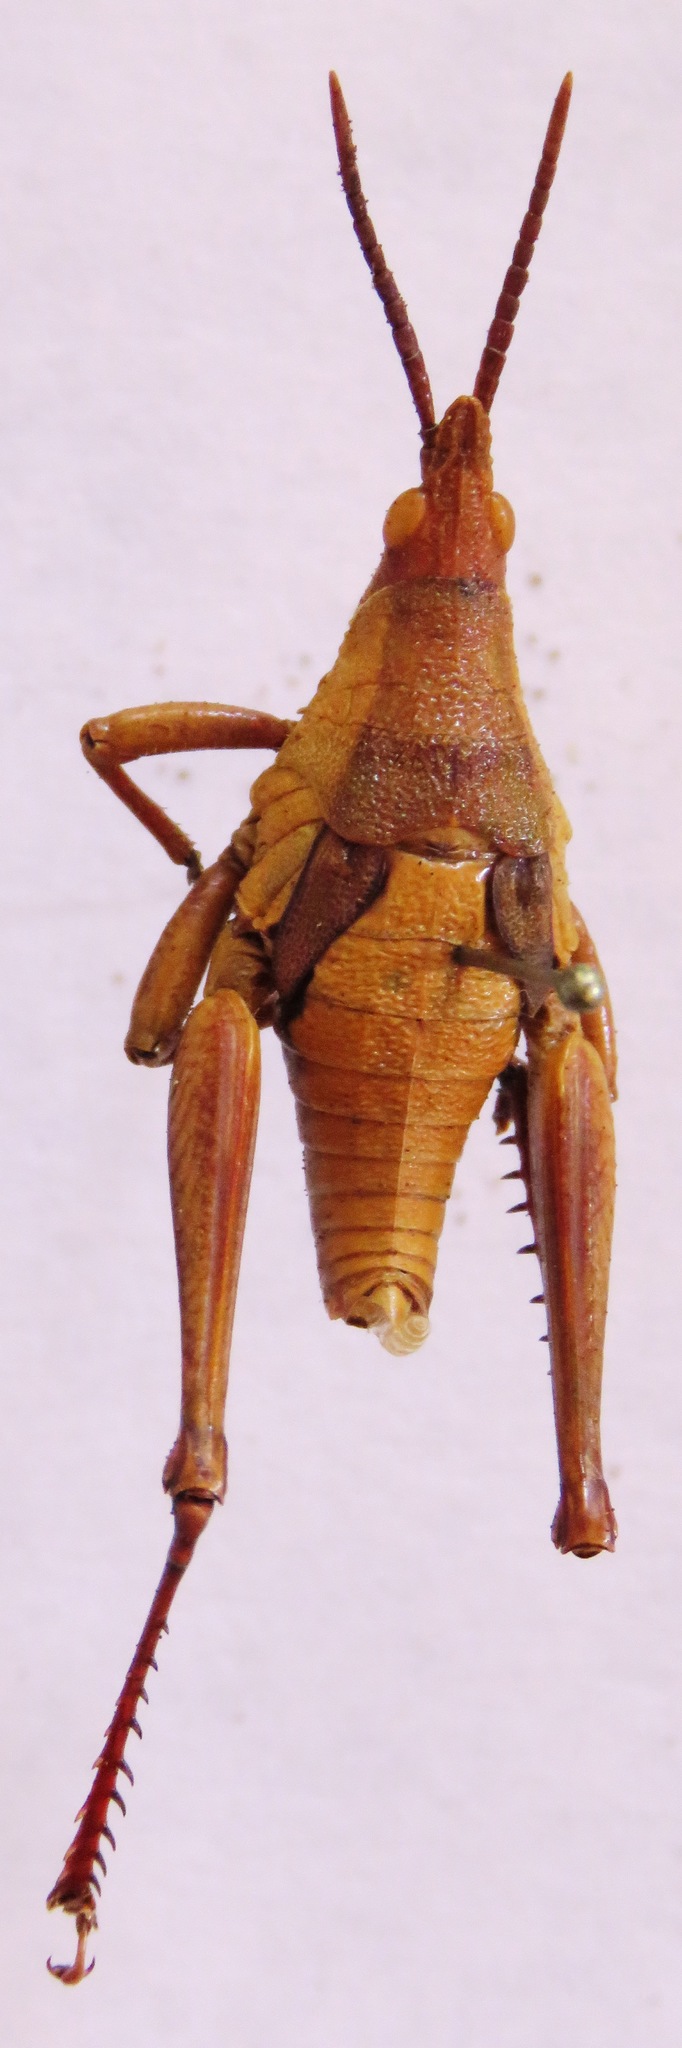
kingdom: Animalia
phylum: Arthropoda
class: Insecta
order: Orthoptera
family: Pyrgomorphidae
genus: Prosphena
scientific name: Prosphena scudderi
